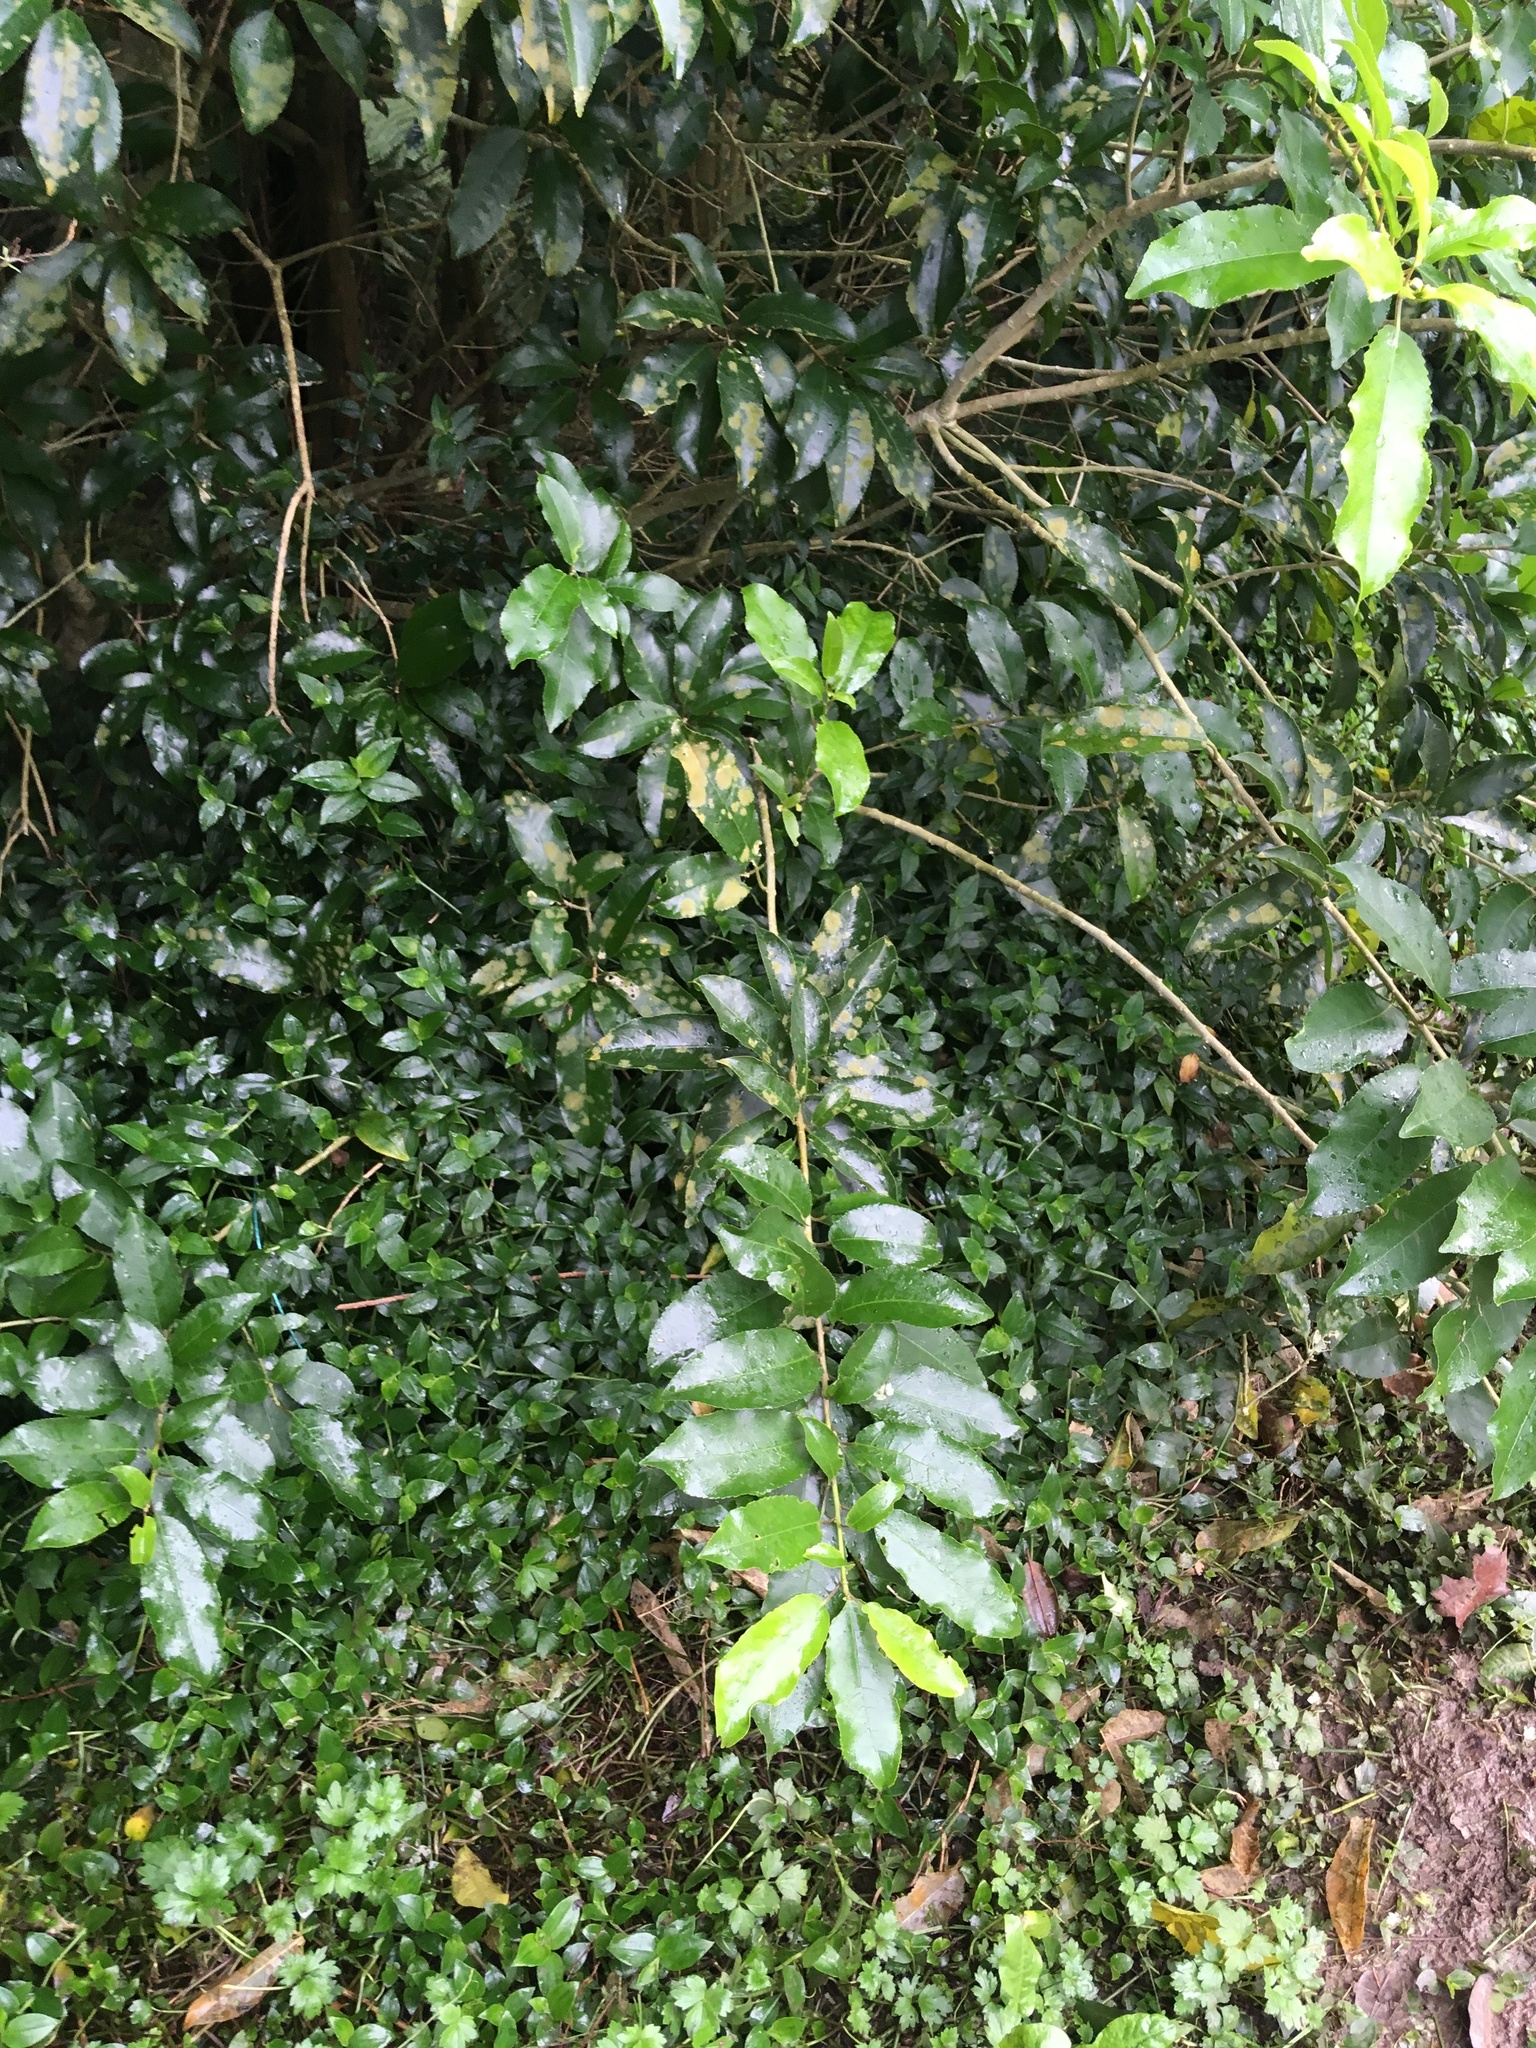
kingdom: Plantae
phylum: Tracheophyta
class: Magnoliopsida
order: Malpighiales
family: Violaceae
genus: Melicytus
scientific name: Melicytus ramiflorus
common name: Mahoe
